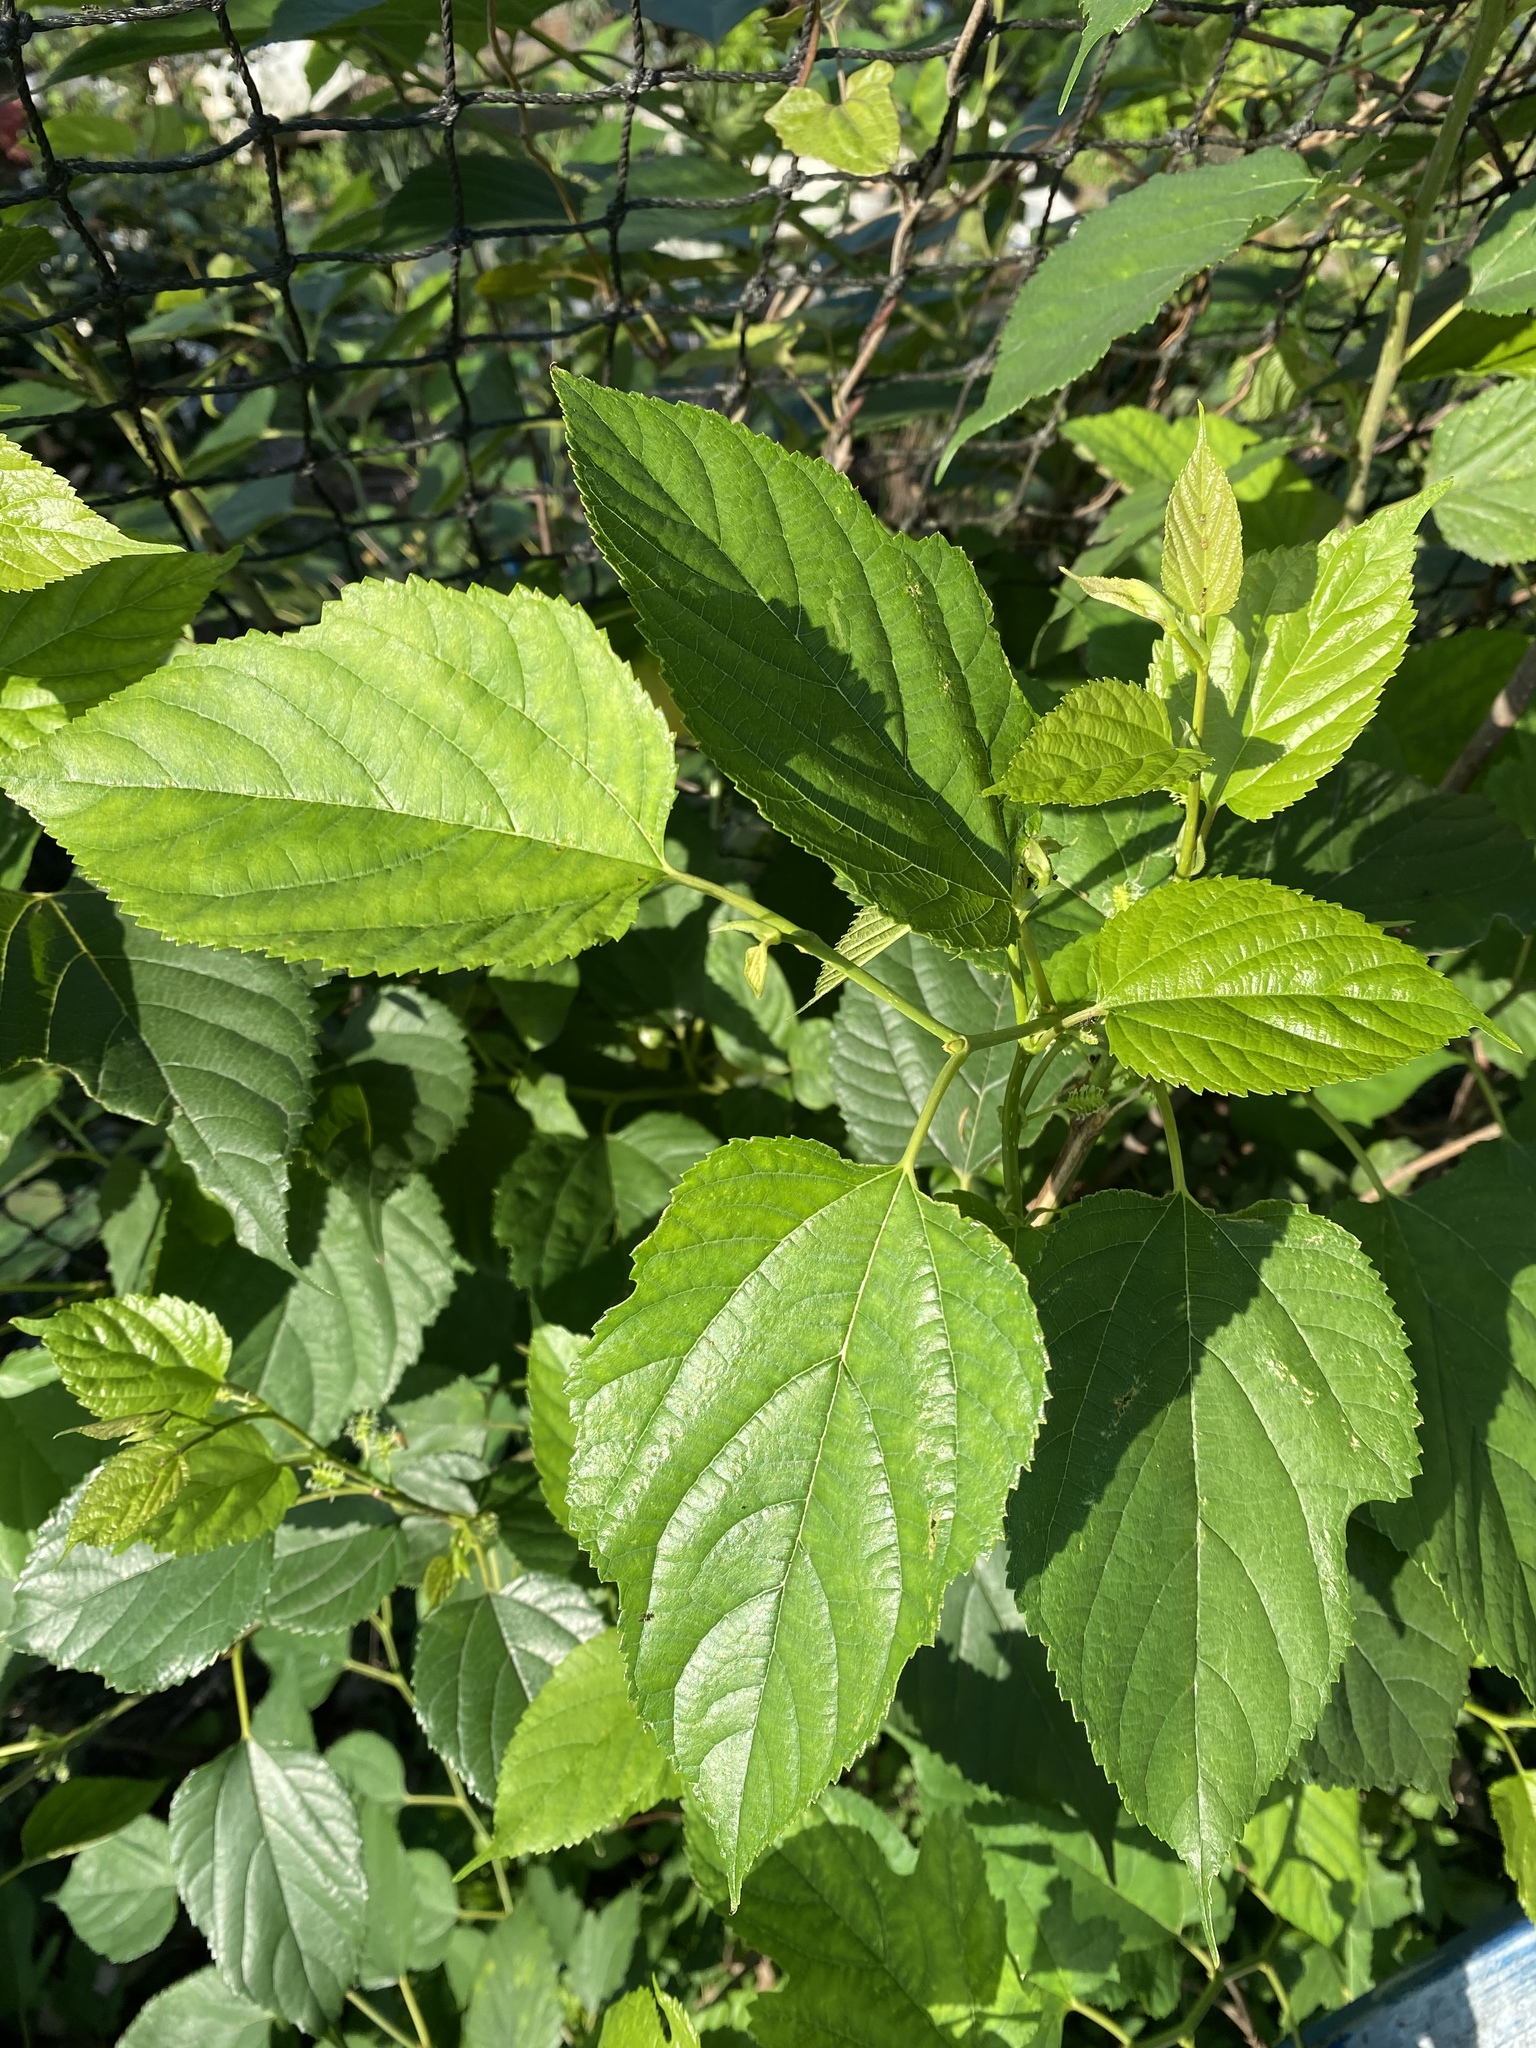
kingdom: Plantae
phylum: Tracheophyta
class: Magnoliopsida
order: Rosales
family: Moraceae
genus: Morus
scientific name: Morus indica
